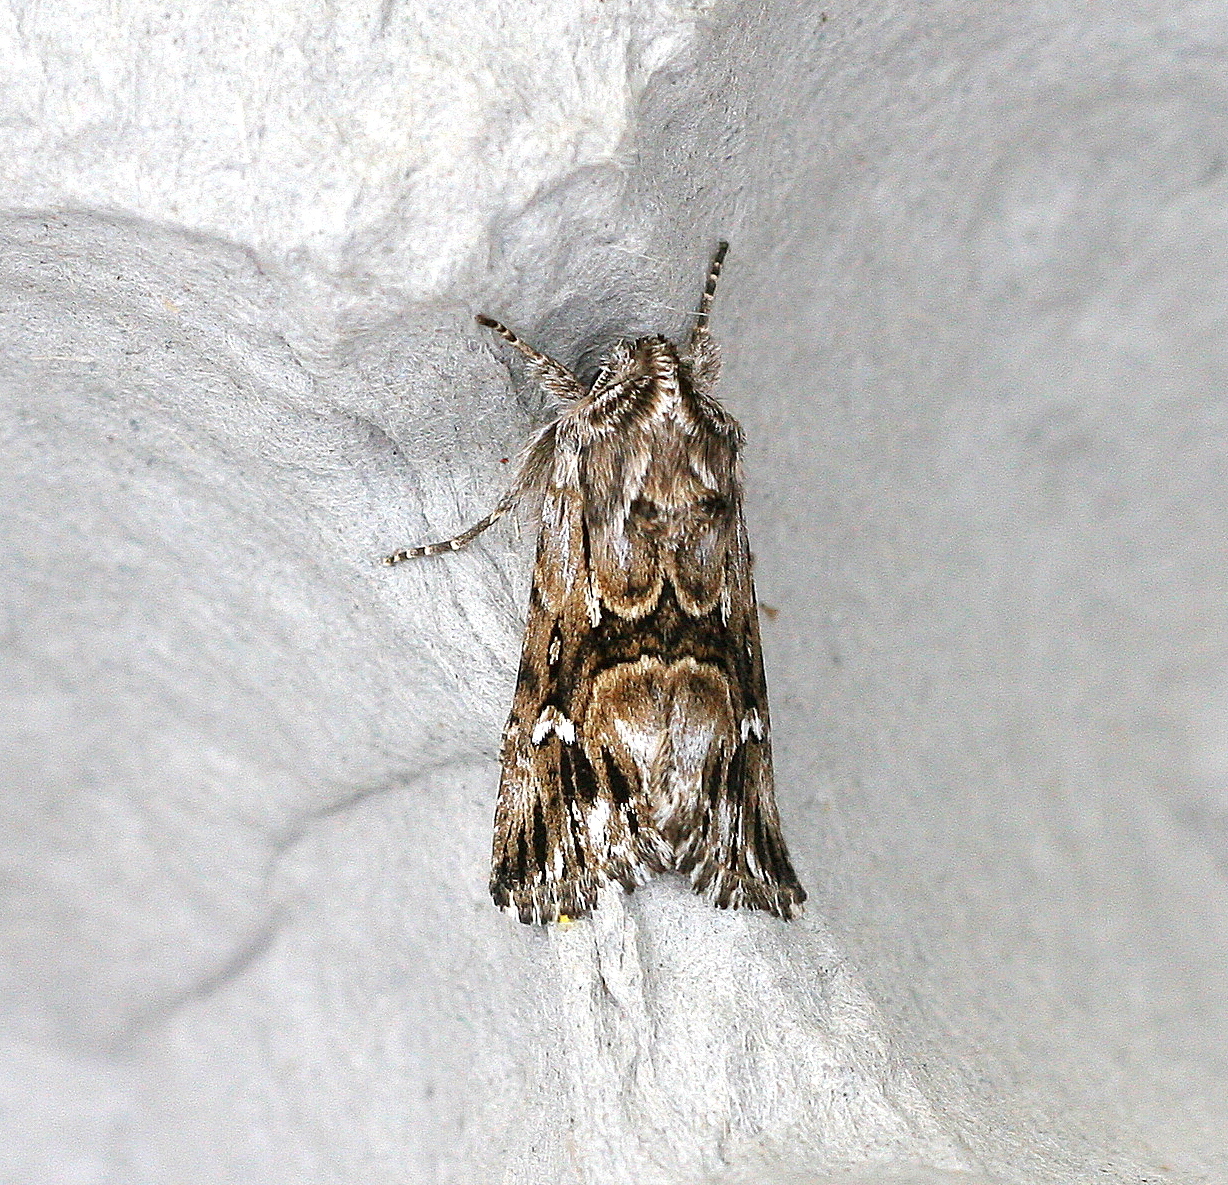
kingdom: Animalia
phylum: Arthropoda
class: Insecta
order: Lepidoptera
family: Noctuidae
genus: Calophasia
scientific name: Calophasia lunula
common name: Toadflax brocade
